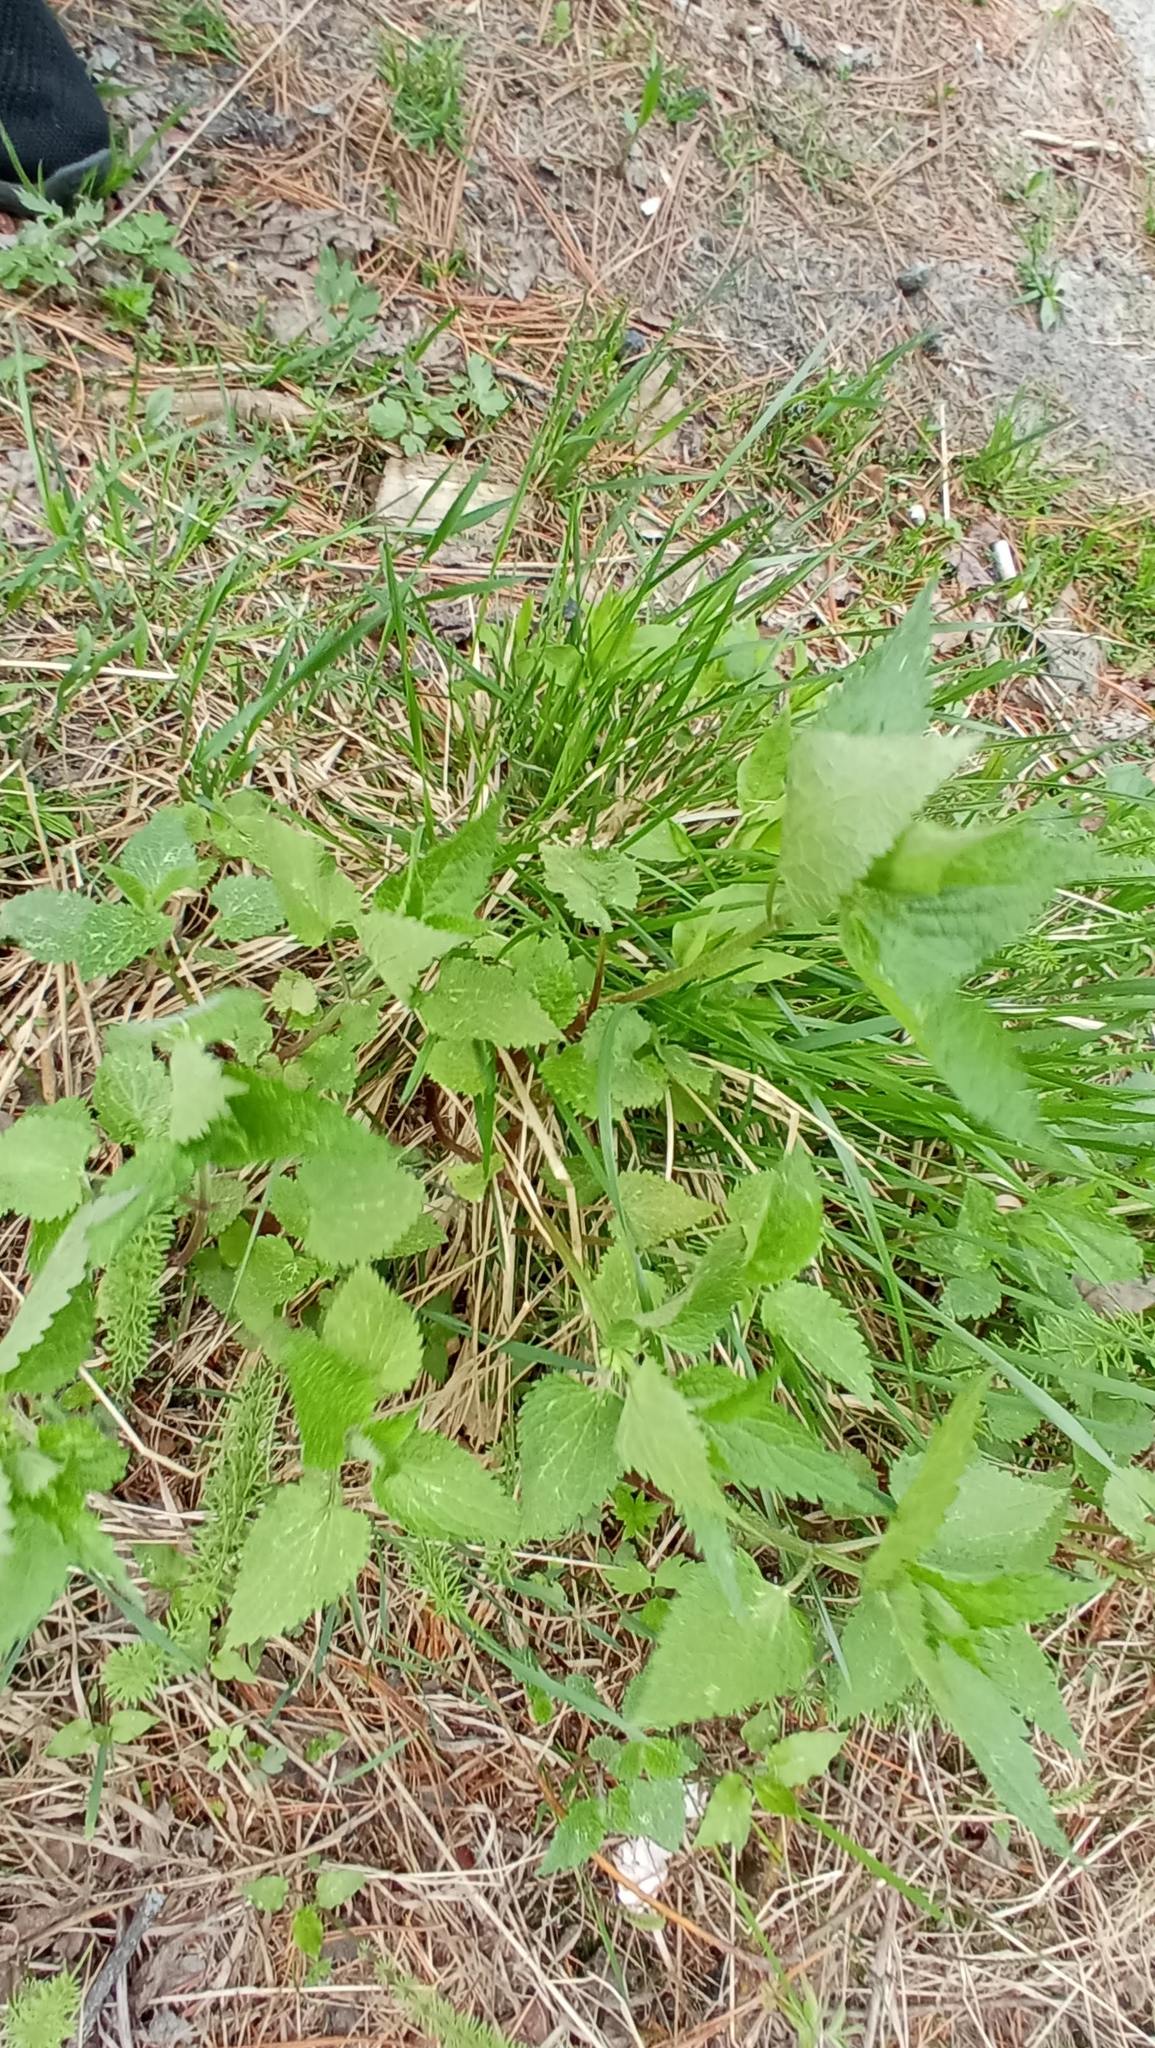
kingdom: Plantae
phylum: Tracheophyta
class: Magnoliopsida
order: Lamiales
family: Lamiaceae
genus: Lamium
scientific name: Lamium album
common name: White dead-nettle
